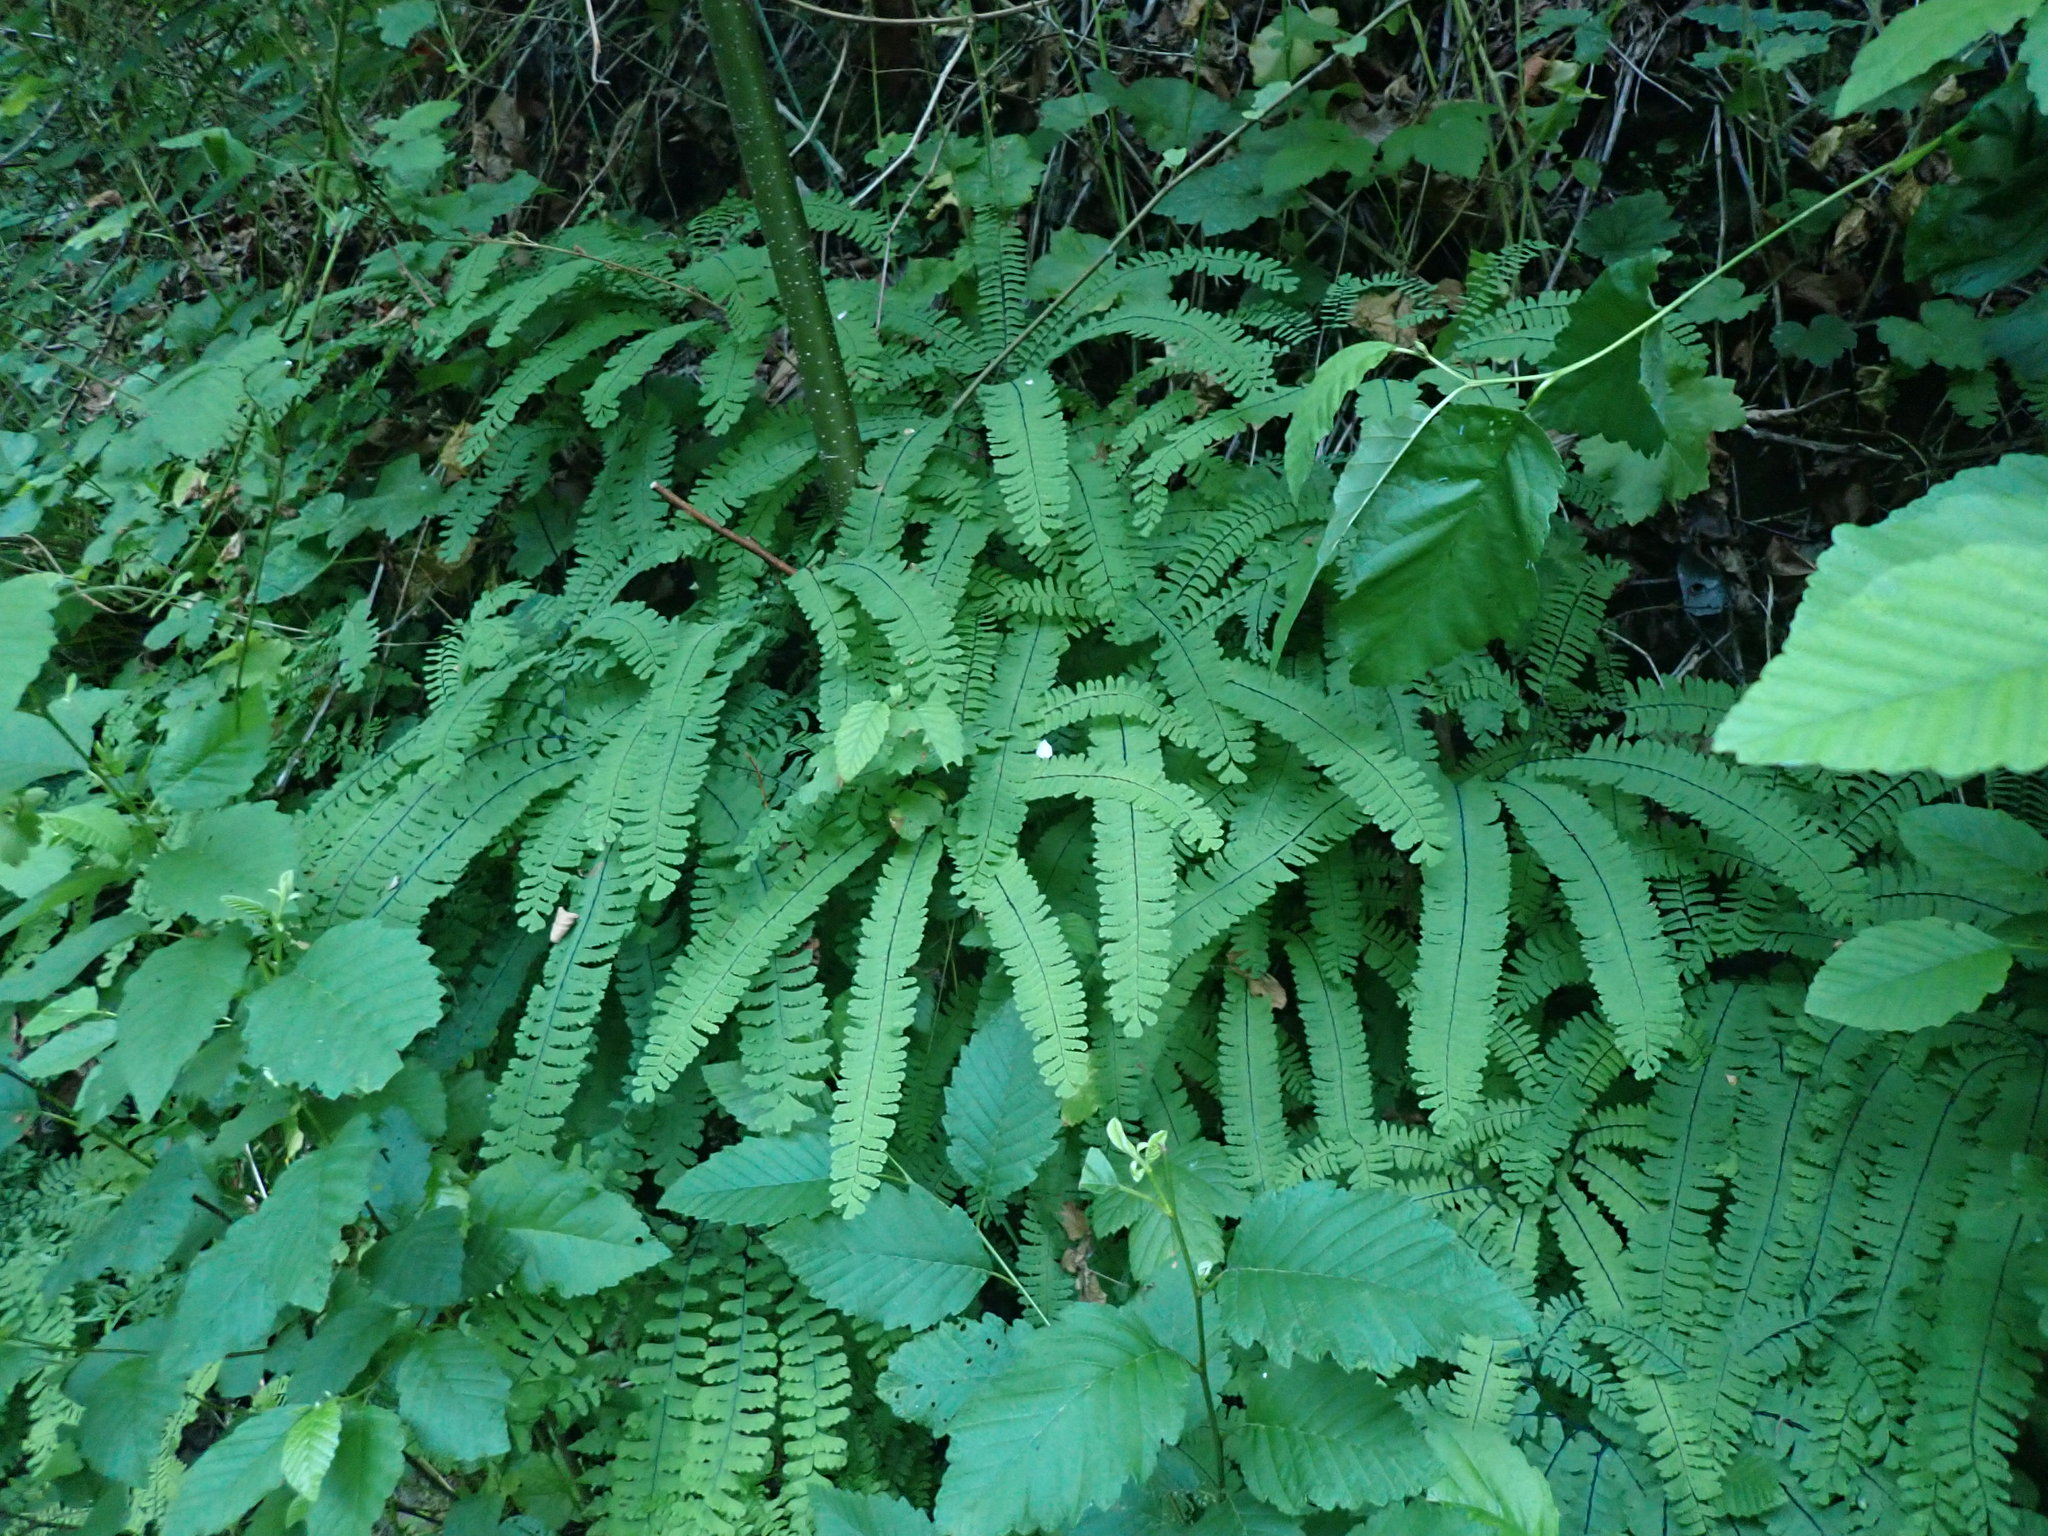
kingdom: Plantae
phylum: Tracheophyta
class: Polypodiopsida
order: Polypodiales
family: Pteridaceae
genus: Adiantum
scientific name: Adiantum aleuticum
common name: Aleutian maidenhair fern
